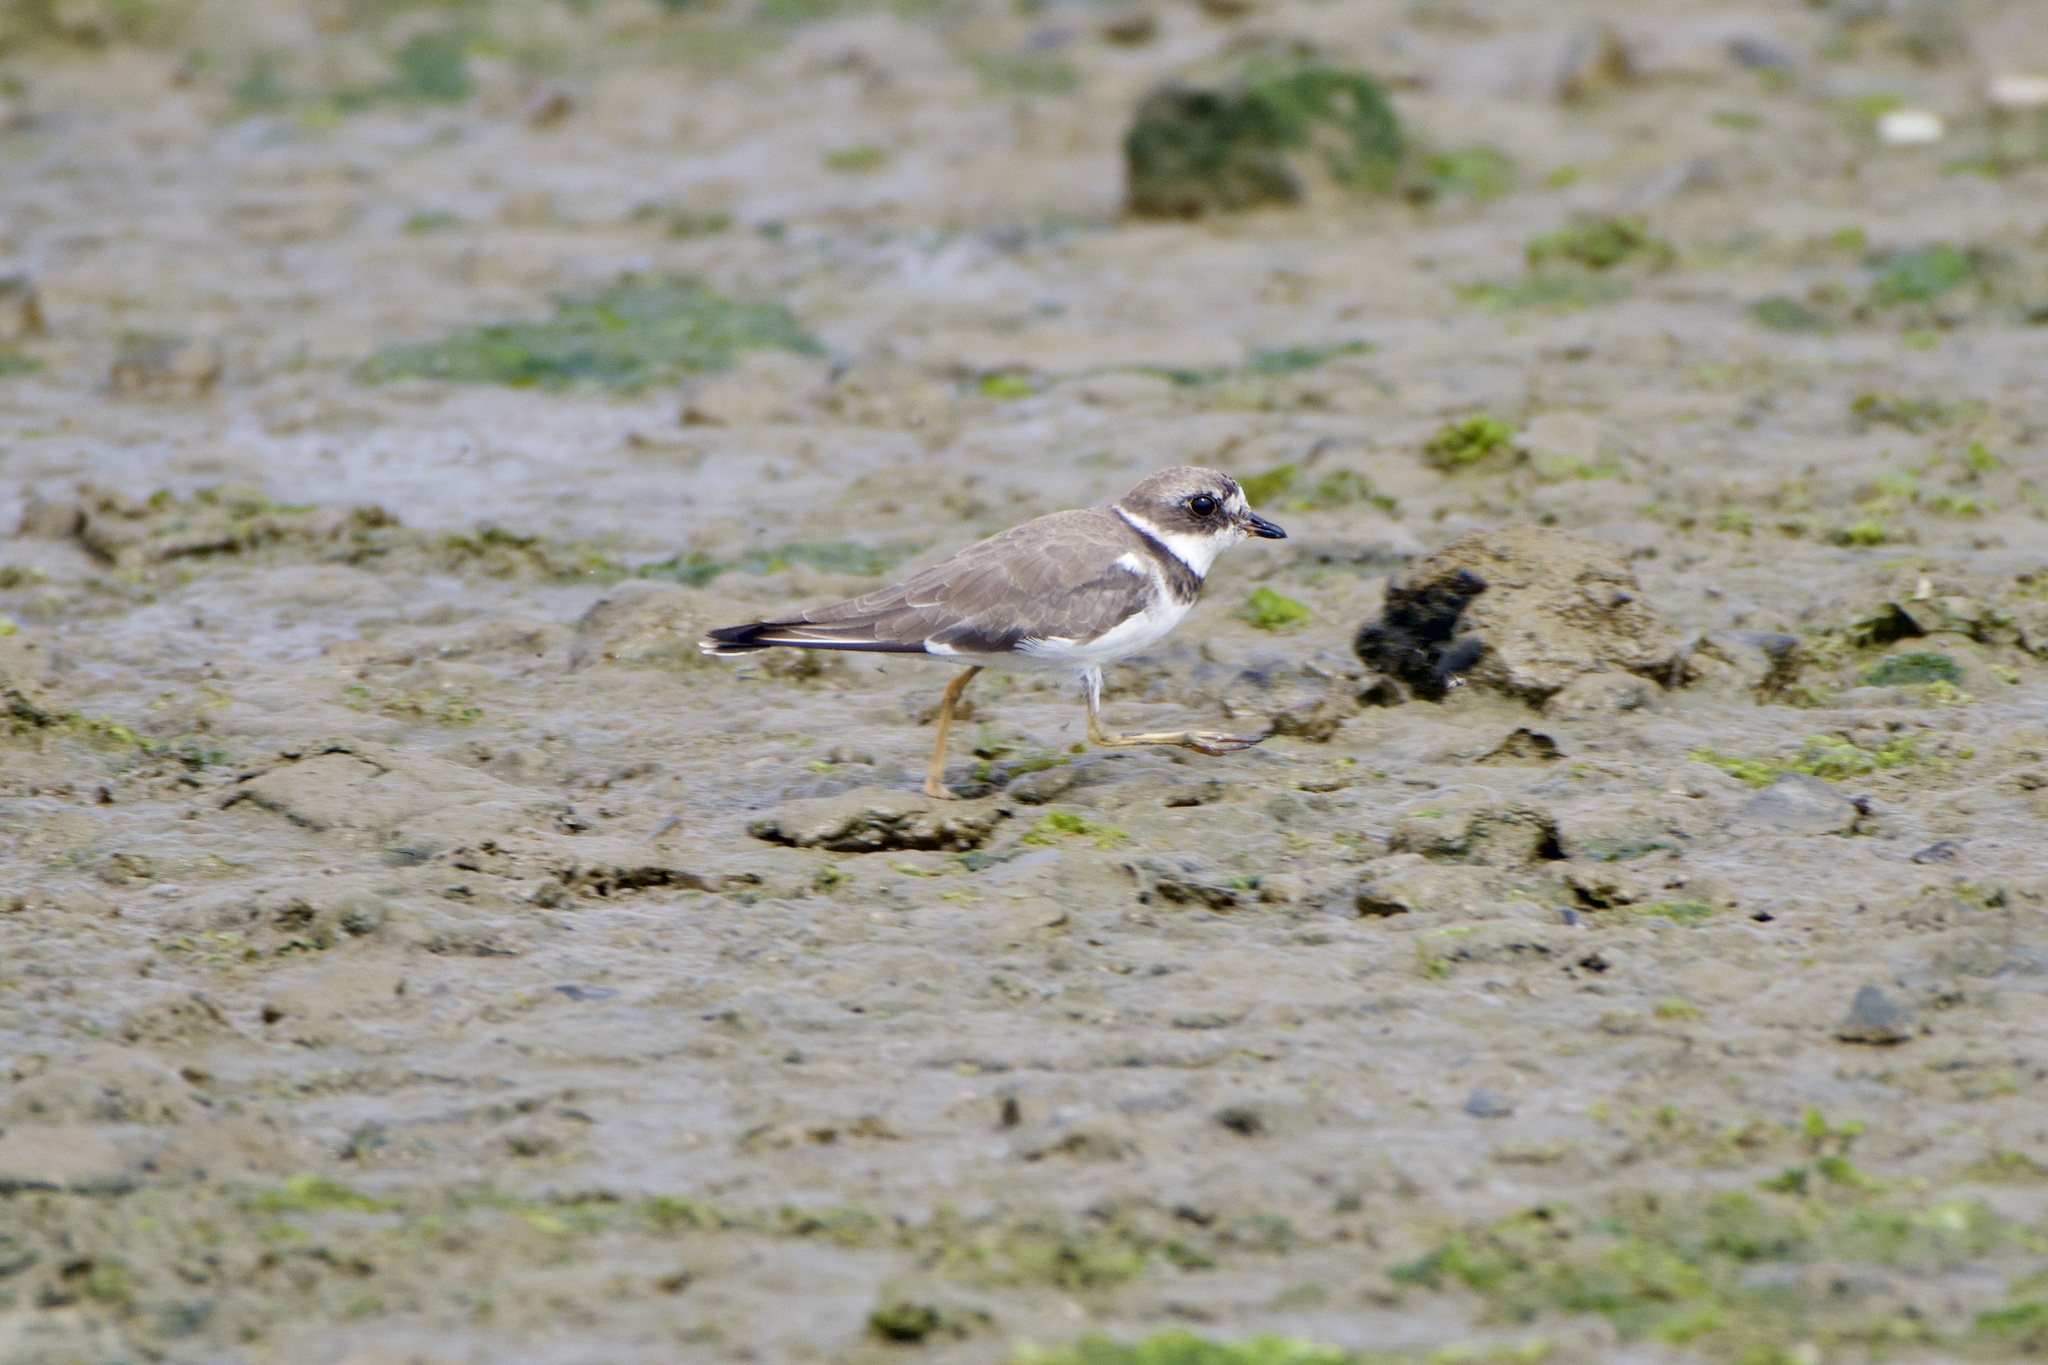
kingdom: Animalia
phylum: Chordata
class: Aves
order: Charadriiformes
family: Charadriidae
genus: Charadrius
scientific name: Charadrius semipalmatus
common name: Semipalmated plover
